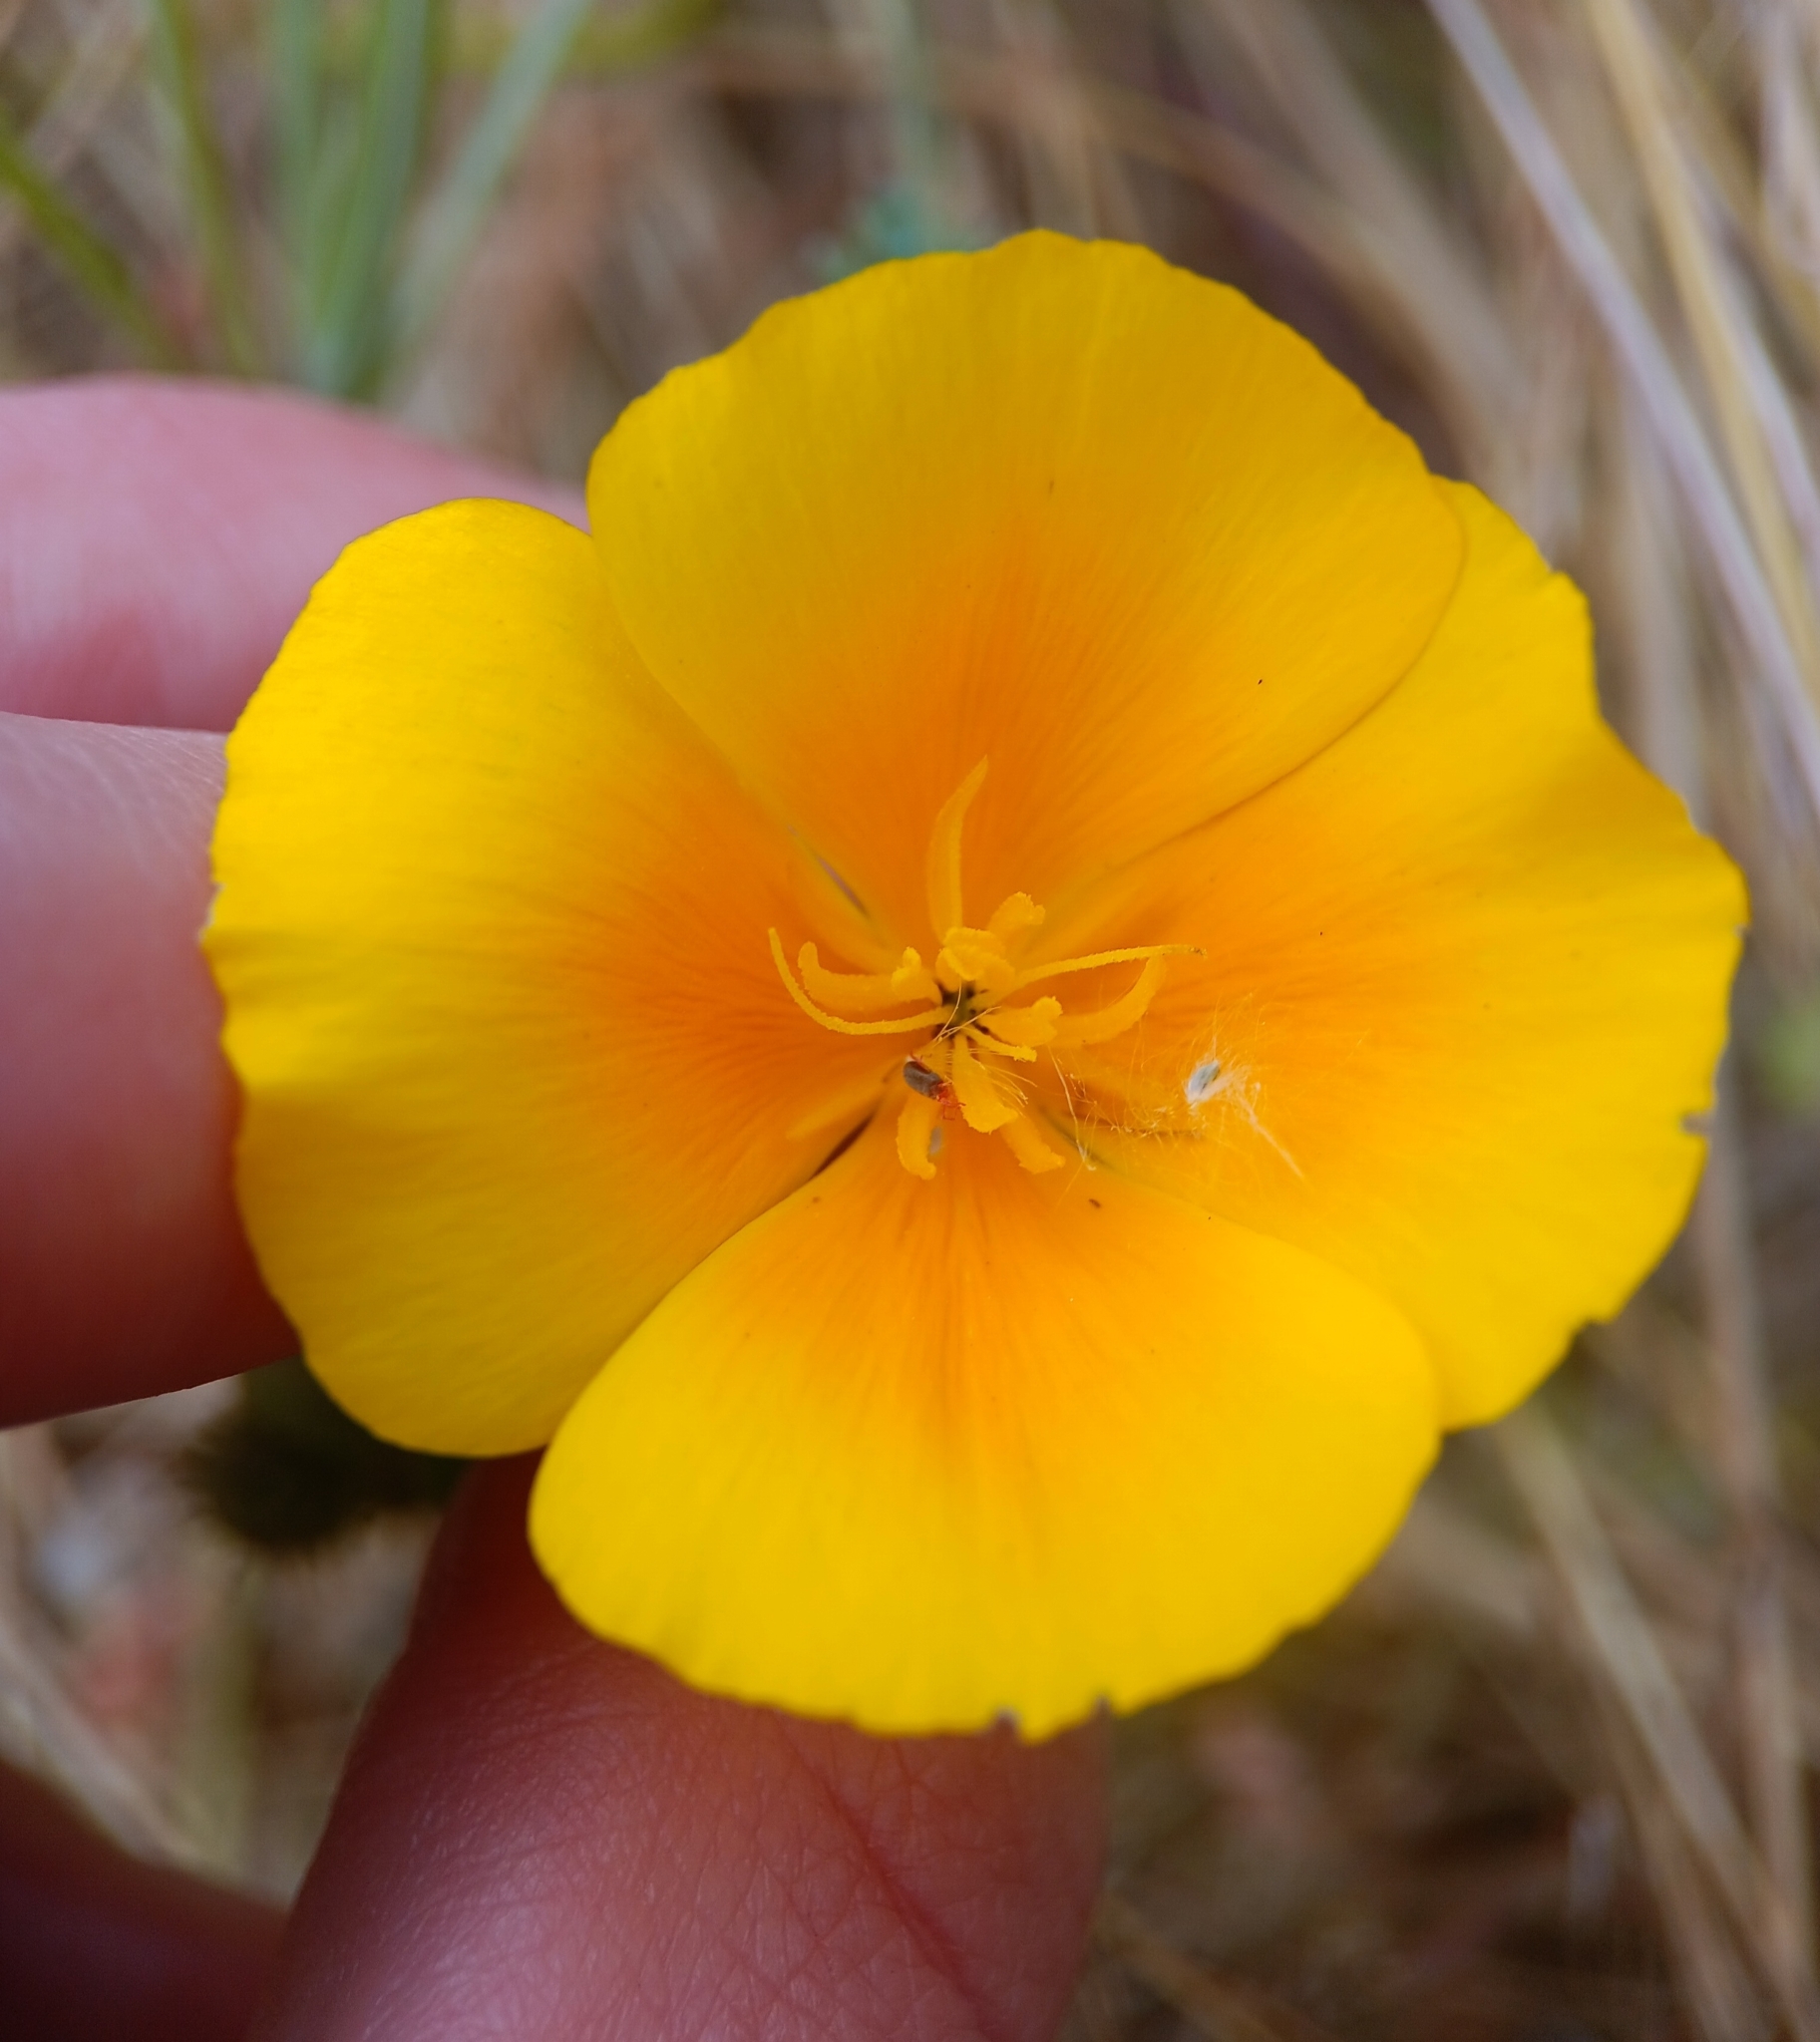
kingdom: Plantae
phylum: Tracheophyta
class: Magnoliopsida
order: Ranunculales
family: Papaveraceae
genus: Eschscholzia
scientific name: Eschscholzia californica
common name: California poppy
